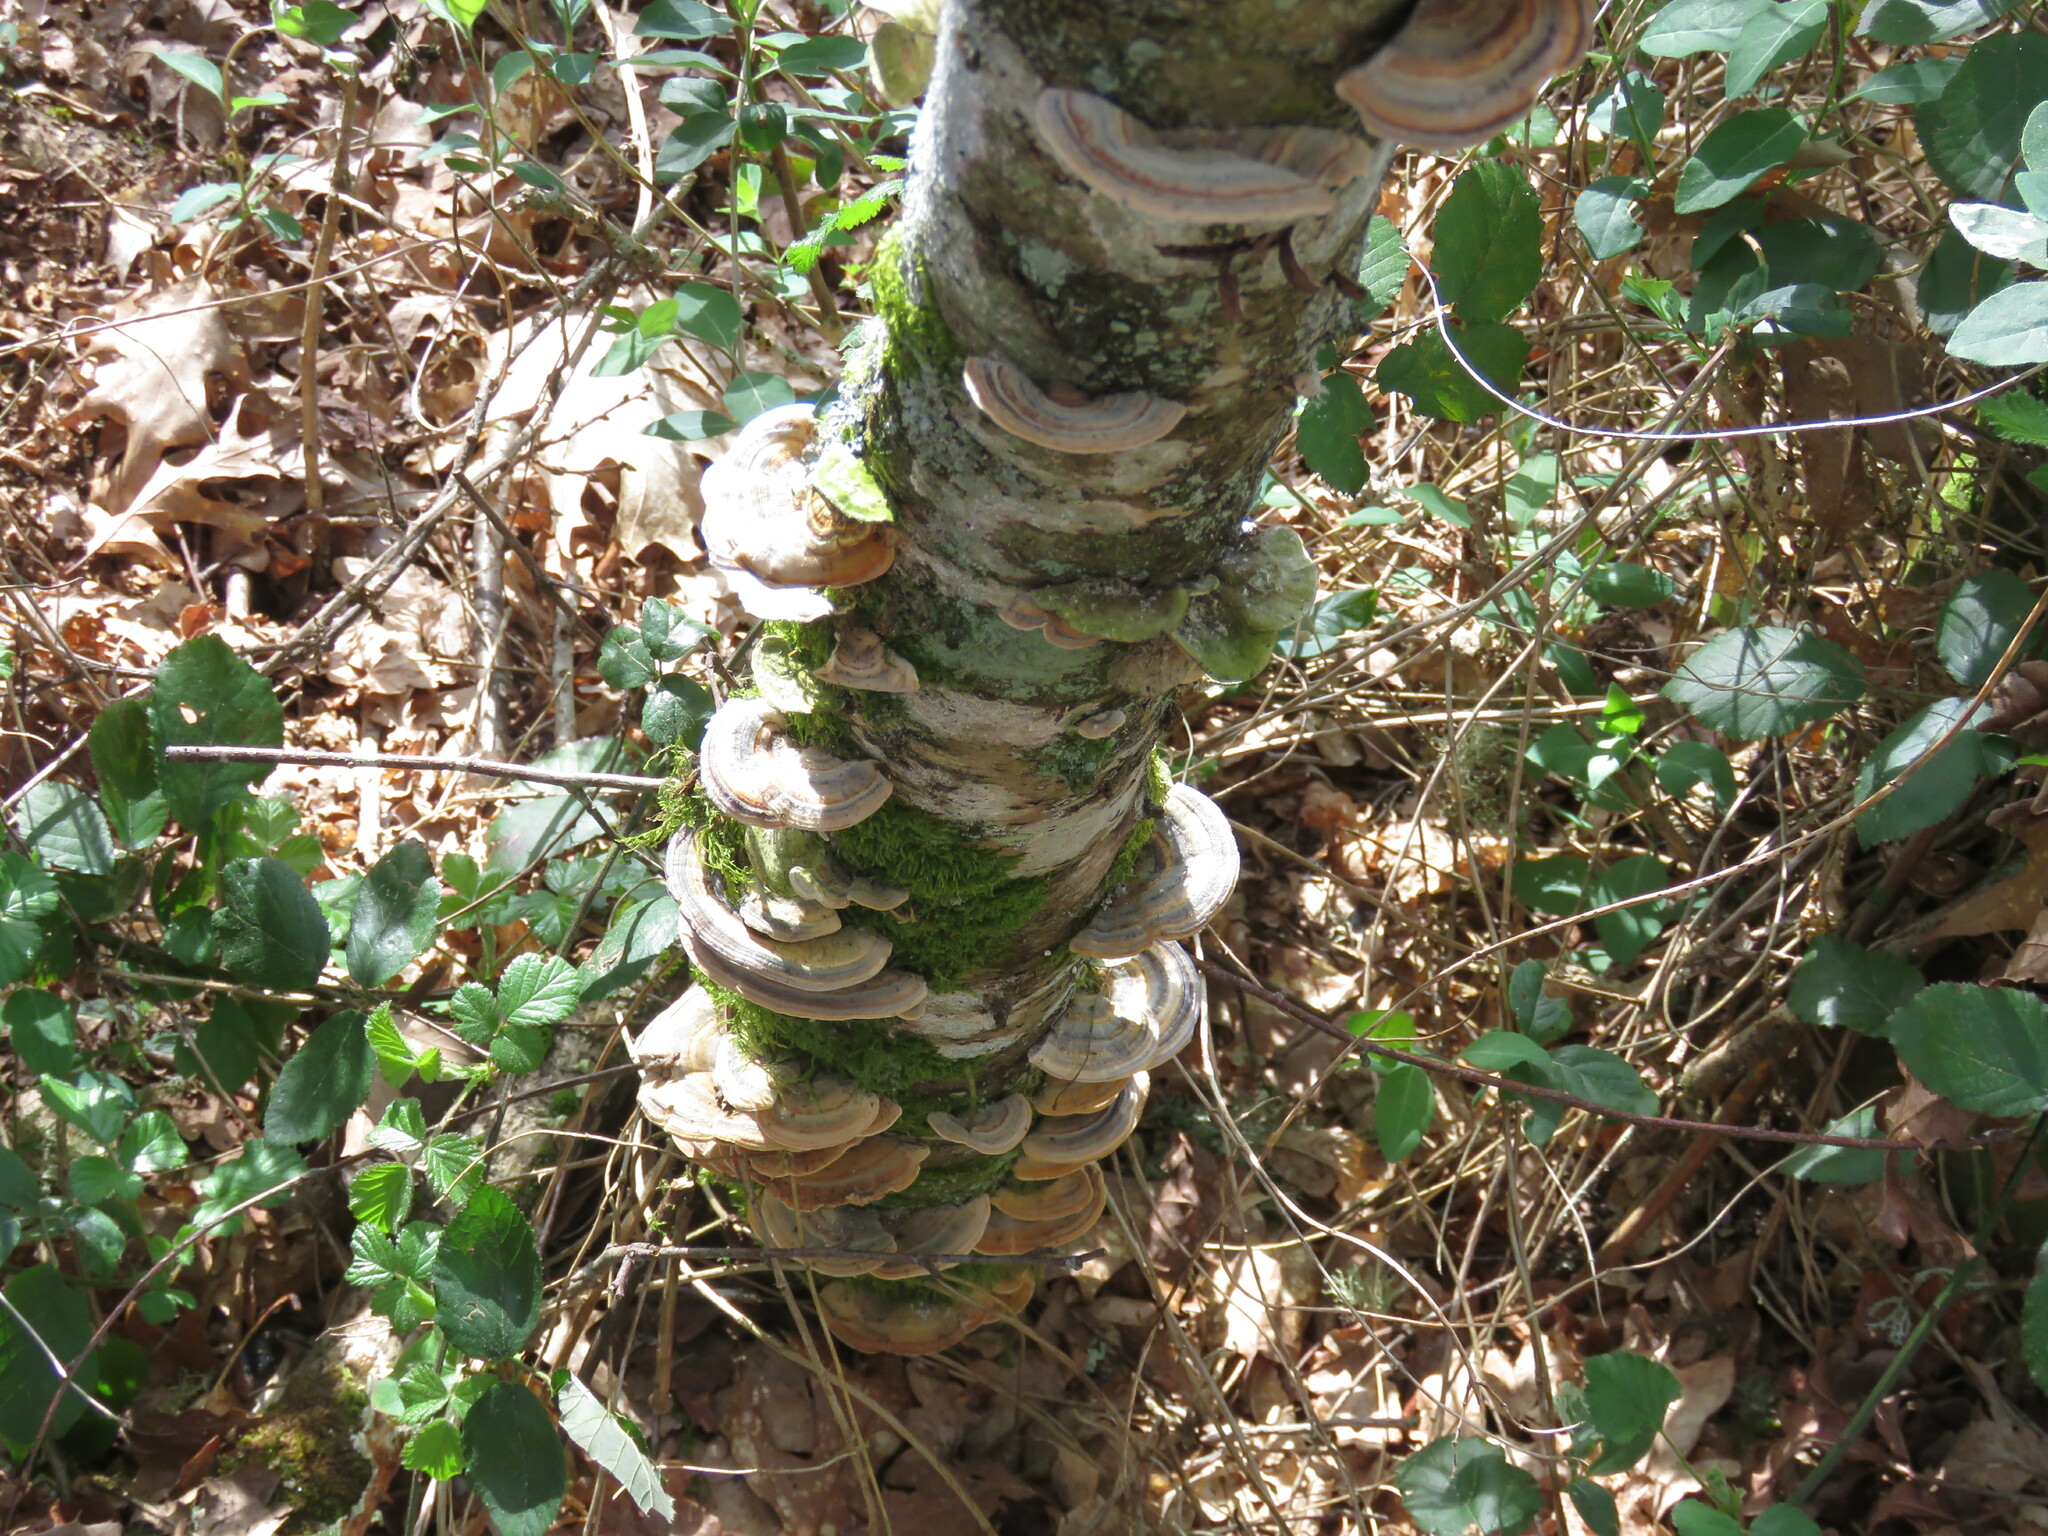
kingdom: Fungi
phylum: Basidiomycota
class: Agaricomycetes
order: Polyporales
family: Polyporaceae
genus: Trametes
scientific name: Trametes versicolor
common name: Turkeytail
